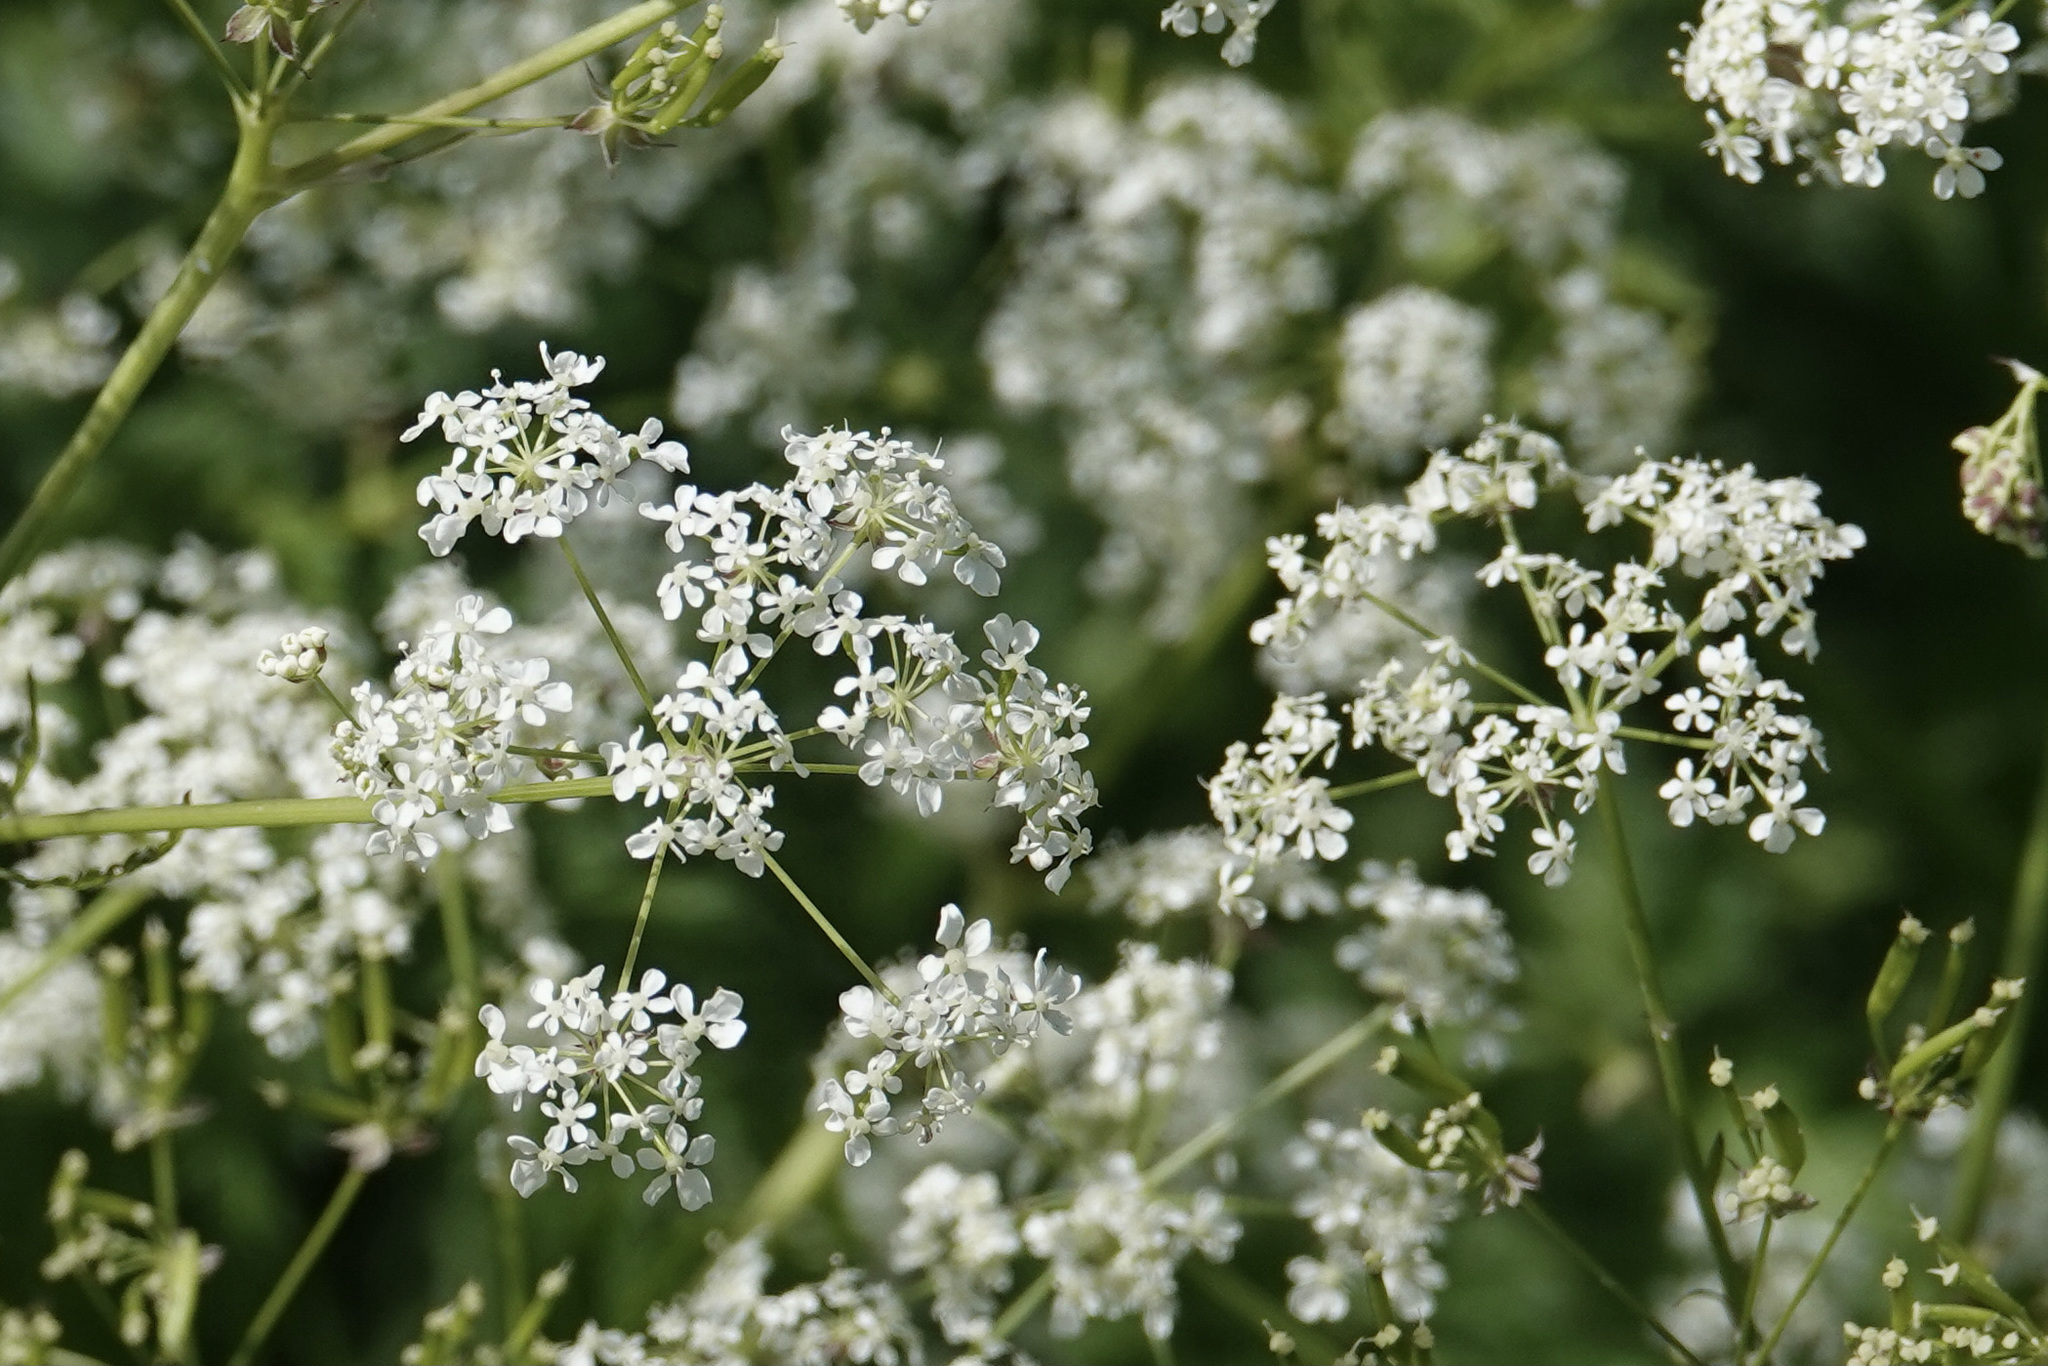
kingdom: Plantae
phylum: Tracheophyta
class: Magnoliopsida
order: Apiales
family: Apiaceae
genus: Anthriscus
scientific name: Anthriscus sylvestris
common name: Cow parsley
